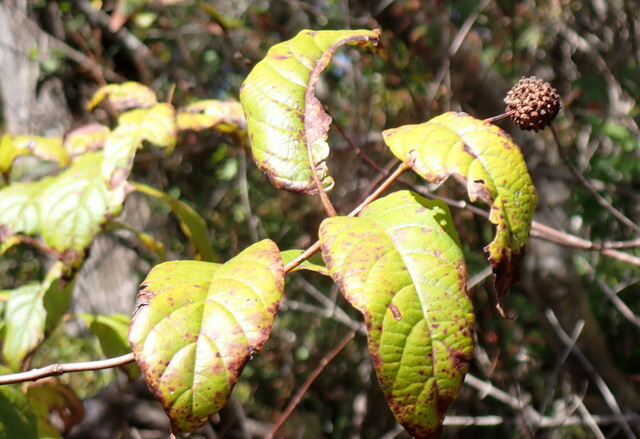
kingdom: Plantae
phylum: Tracheophyta
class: Magnoliopsida
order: Gentianales
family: Rubiaceae
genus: Cephalanthus
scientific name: Cephalanthus occidentalis
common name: Button-willow
